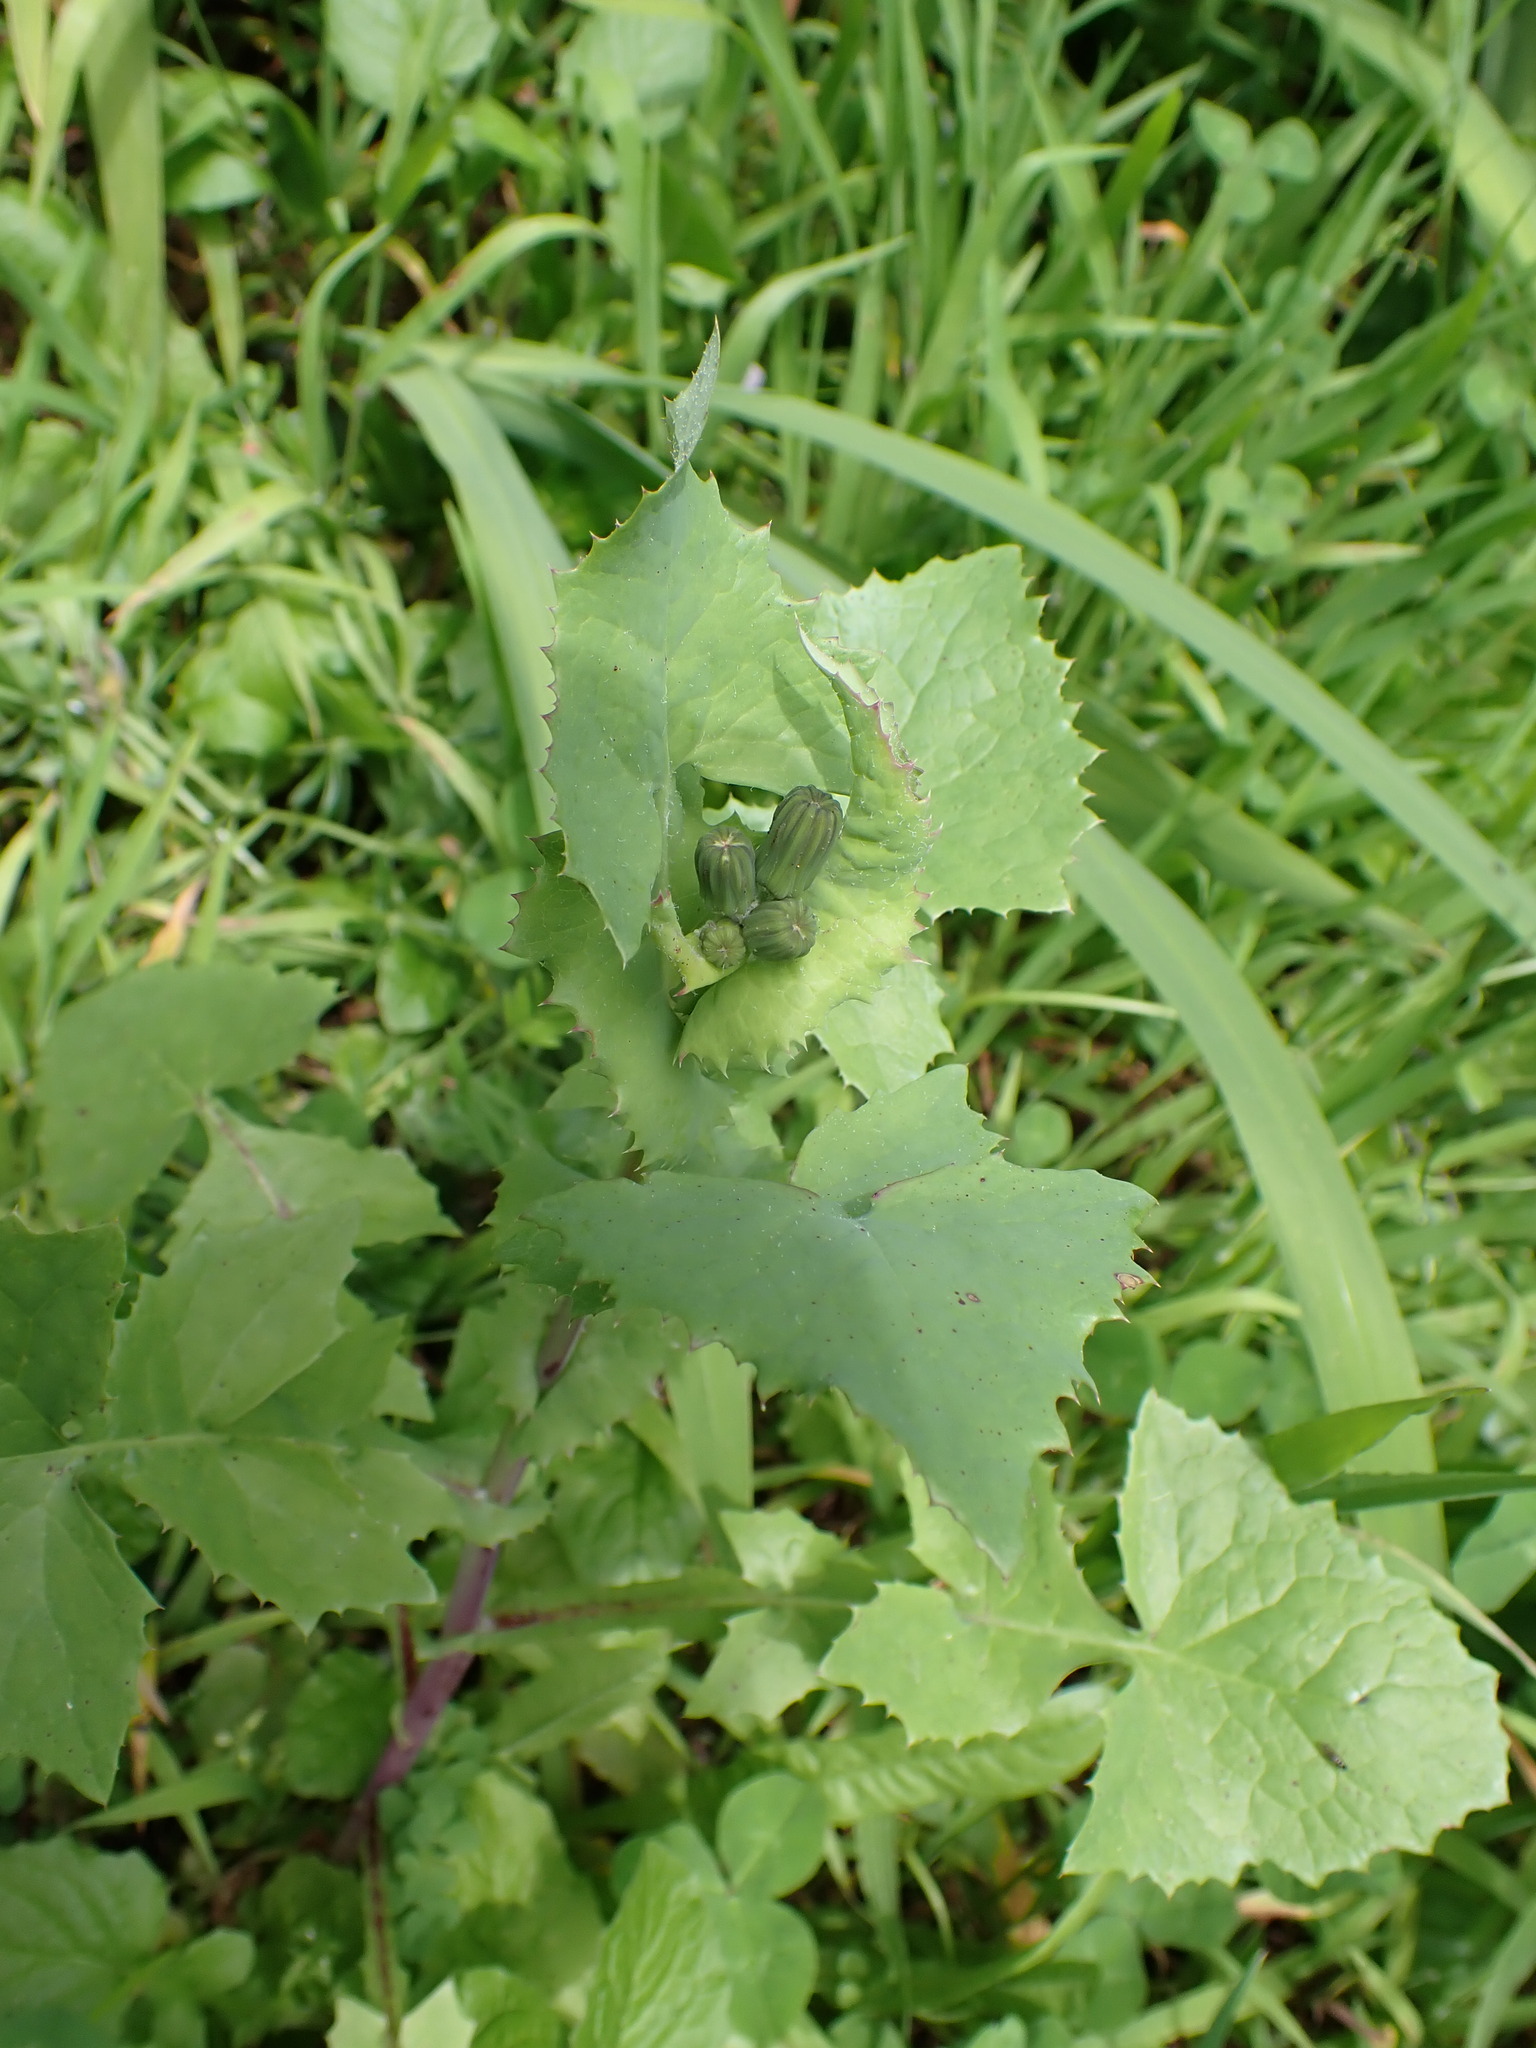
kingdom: Plantae
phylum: Tracheophyta
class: Magnoliopsida
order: Asterales
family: Asteraceae
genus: Sonchus
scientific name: Sonchus oleraceus
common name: Common sowthistle
